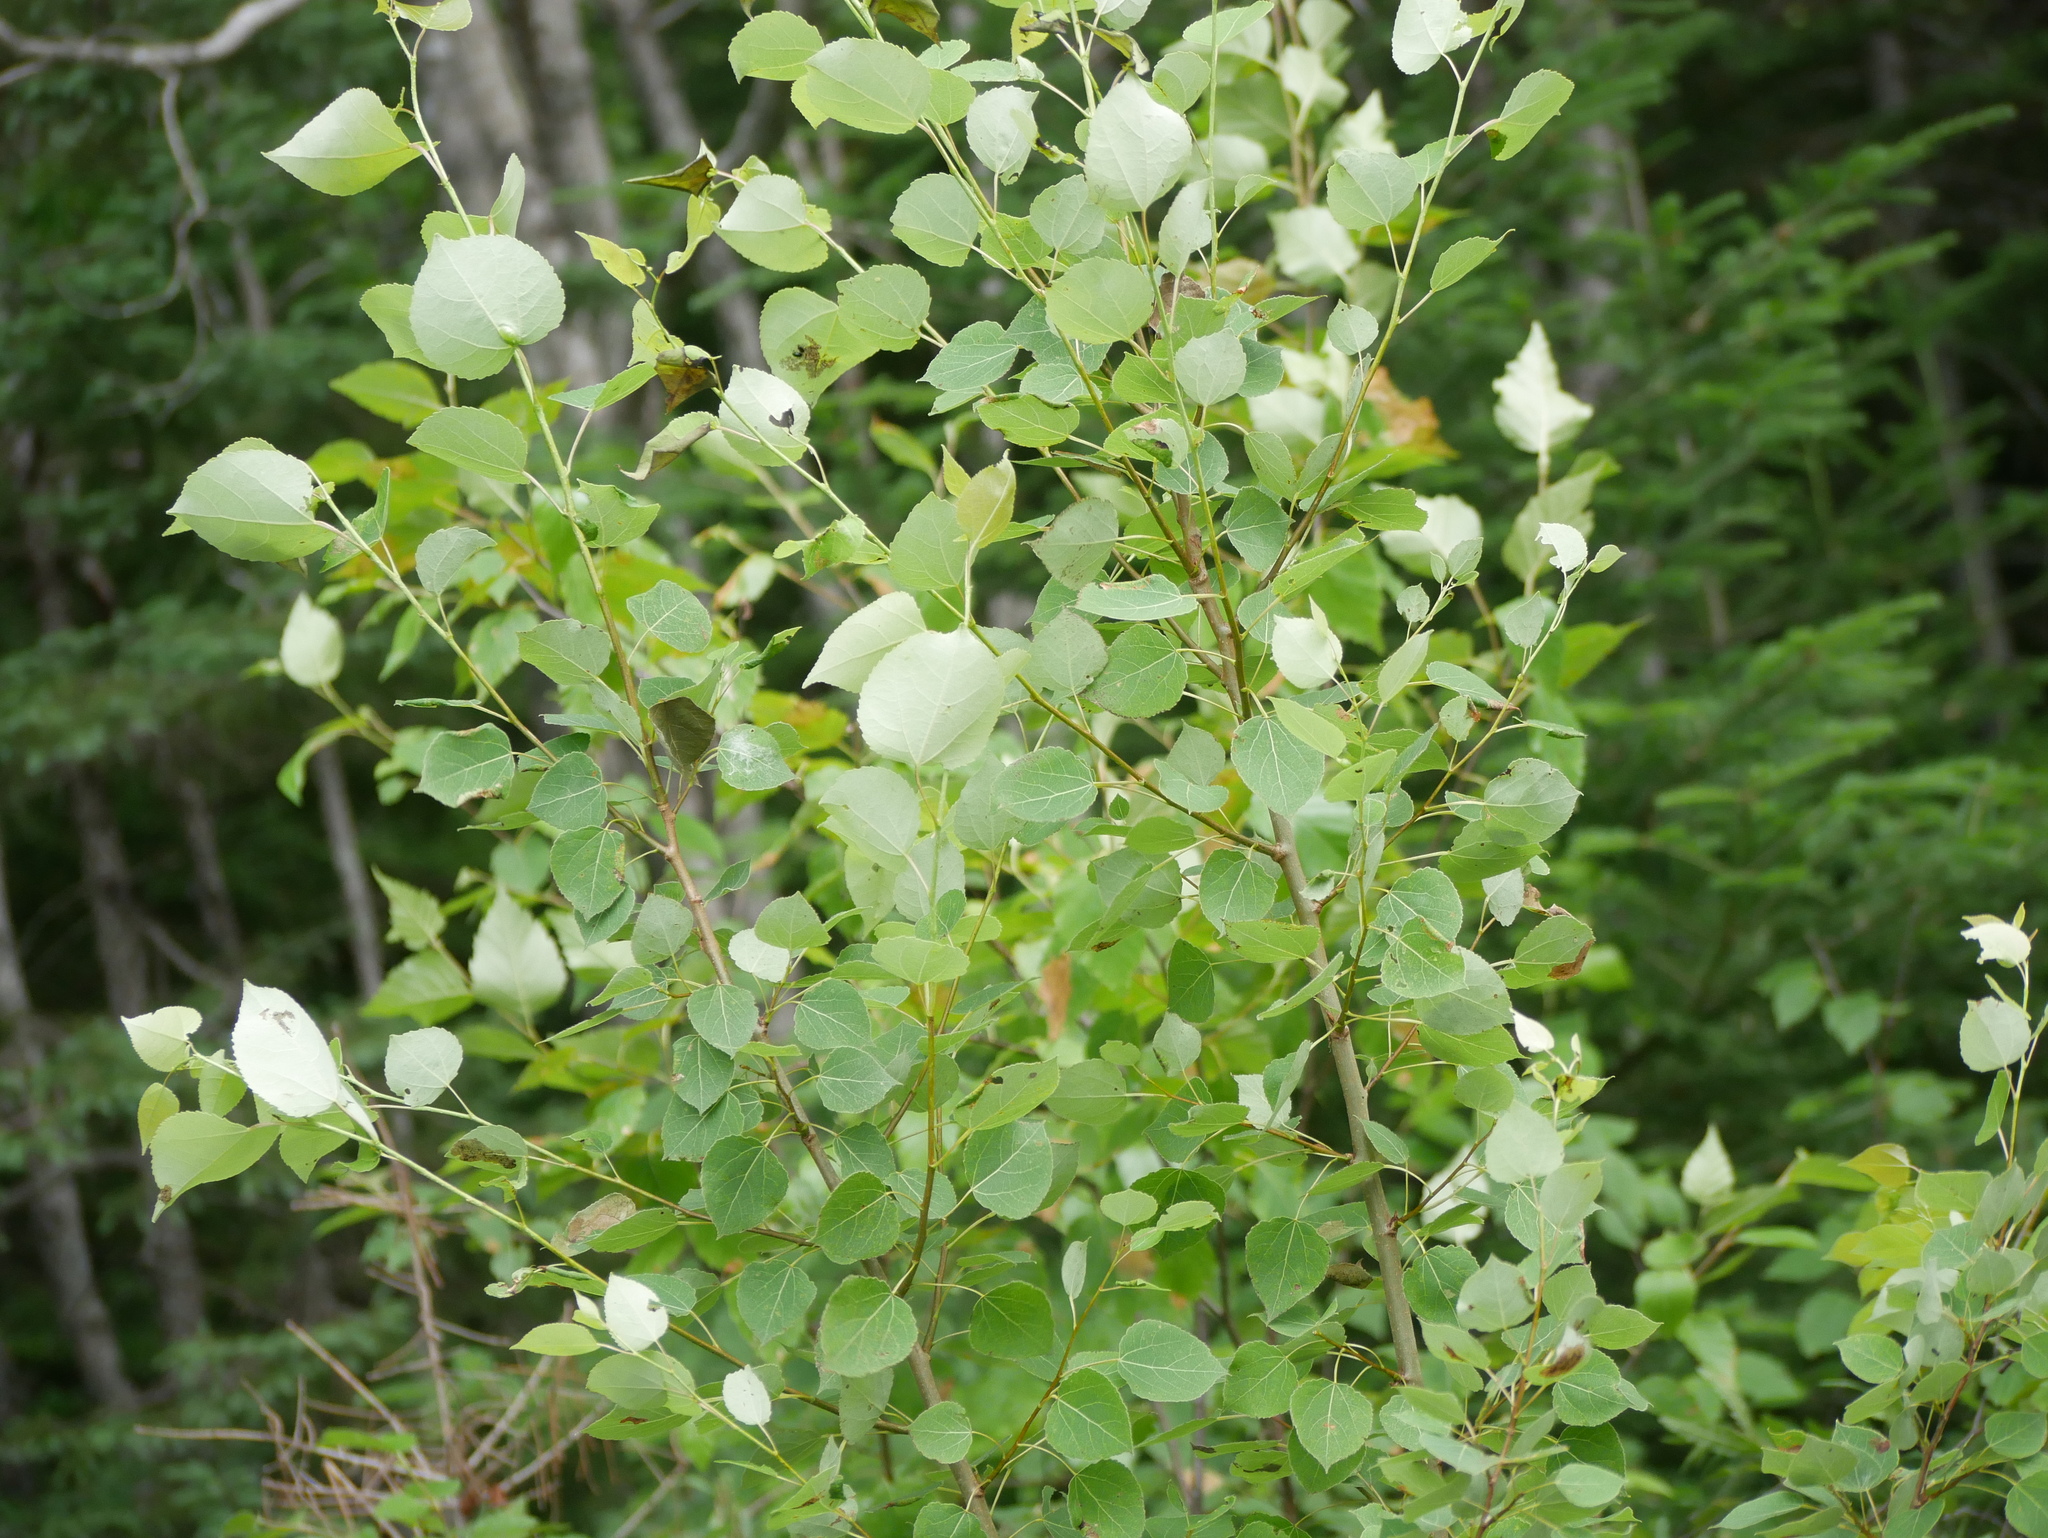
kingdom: Plantae
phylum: Tracheophyta
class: Magnoliopsida
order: Malpighiales
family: Salicaceae
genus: Populus
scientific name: Populus tremuloides
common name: Quaking aspen
